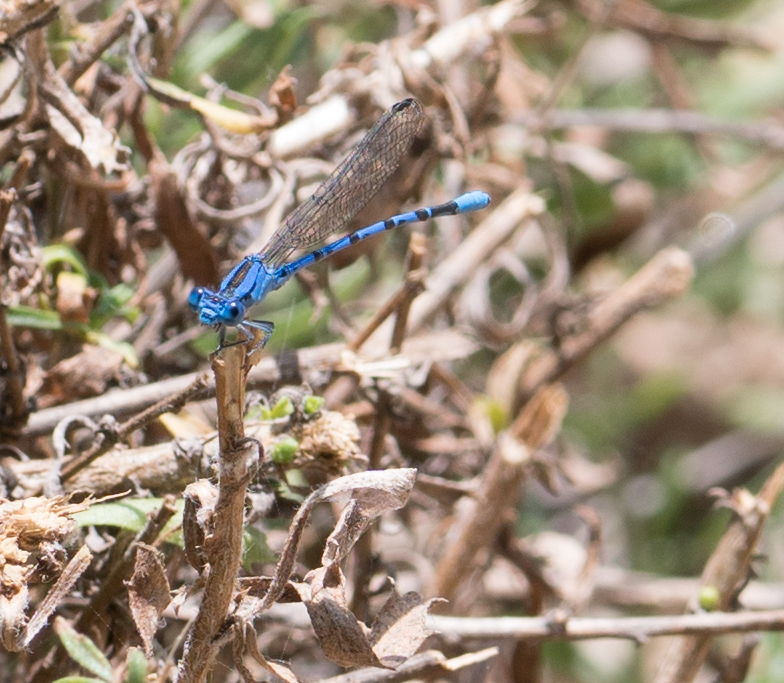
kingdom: Animalia
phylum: Arthropoda
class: Insecta
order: Odonata
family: Coenagrionidae
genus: Argia
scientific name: Argia vivida
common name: Vivid dancer
